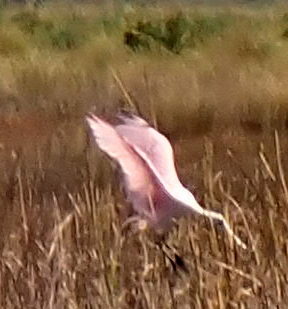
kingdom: Animalia
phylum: Chordata
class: Aves
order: Pelecaniformes
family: Threskiornithidae
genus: Platalea
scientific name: Platalea ajaja
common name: Roseate spoonbill
